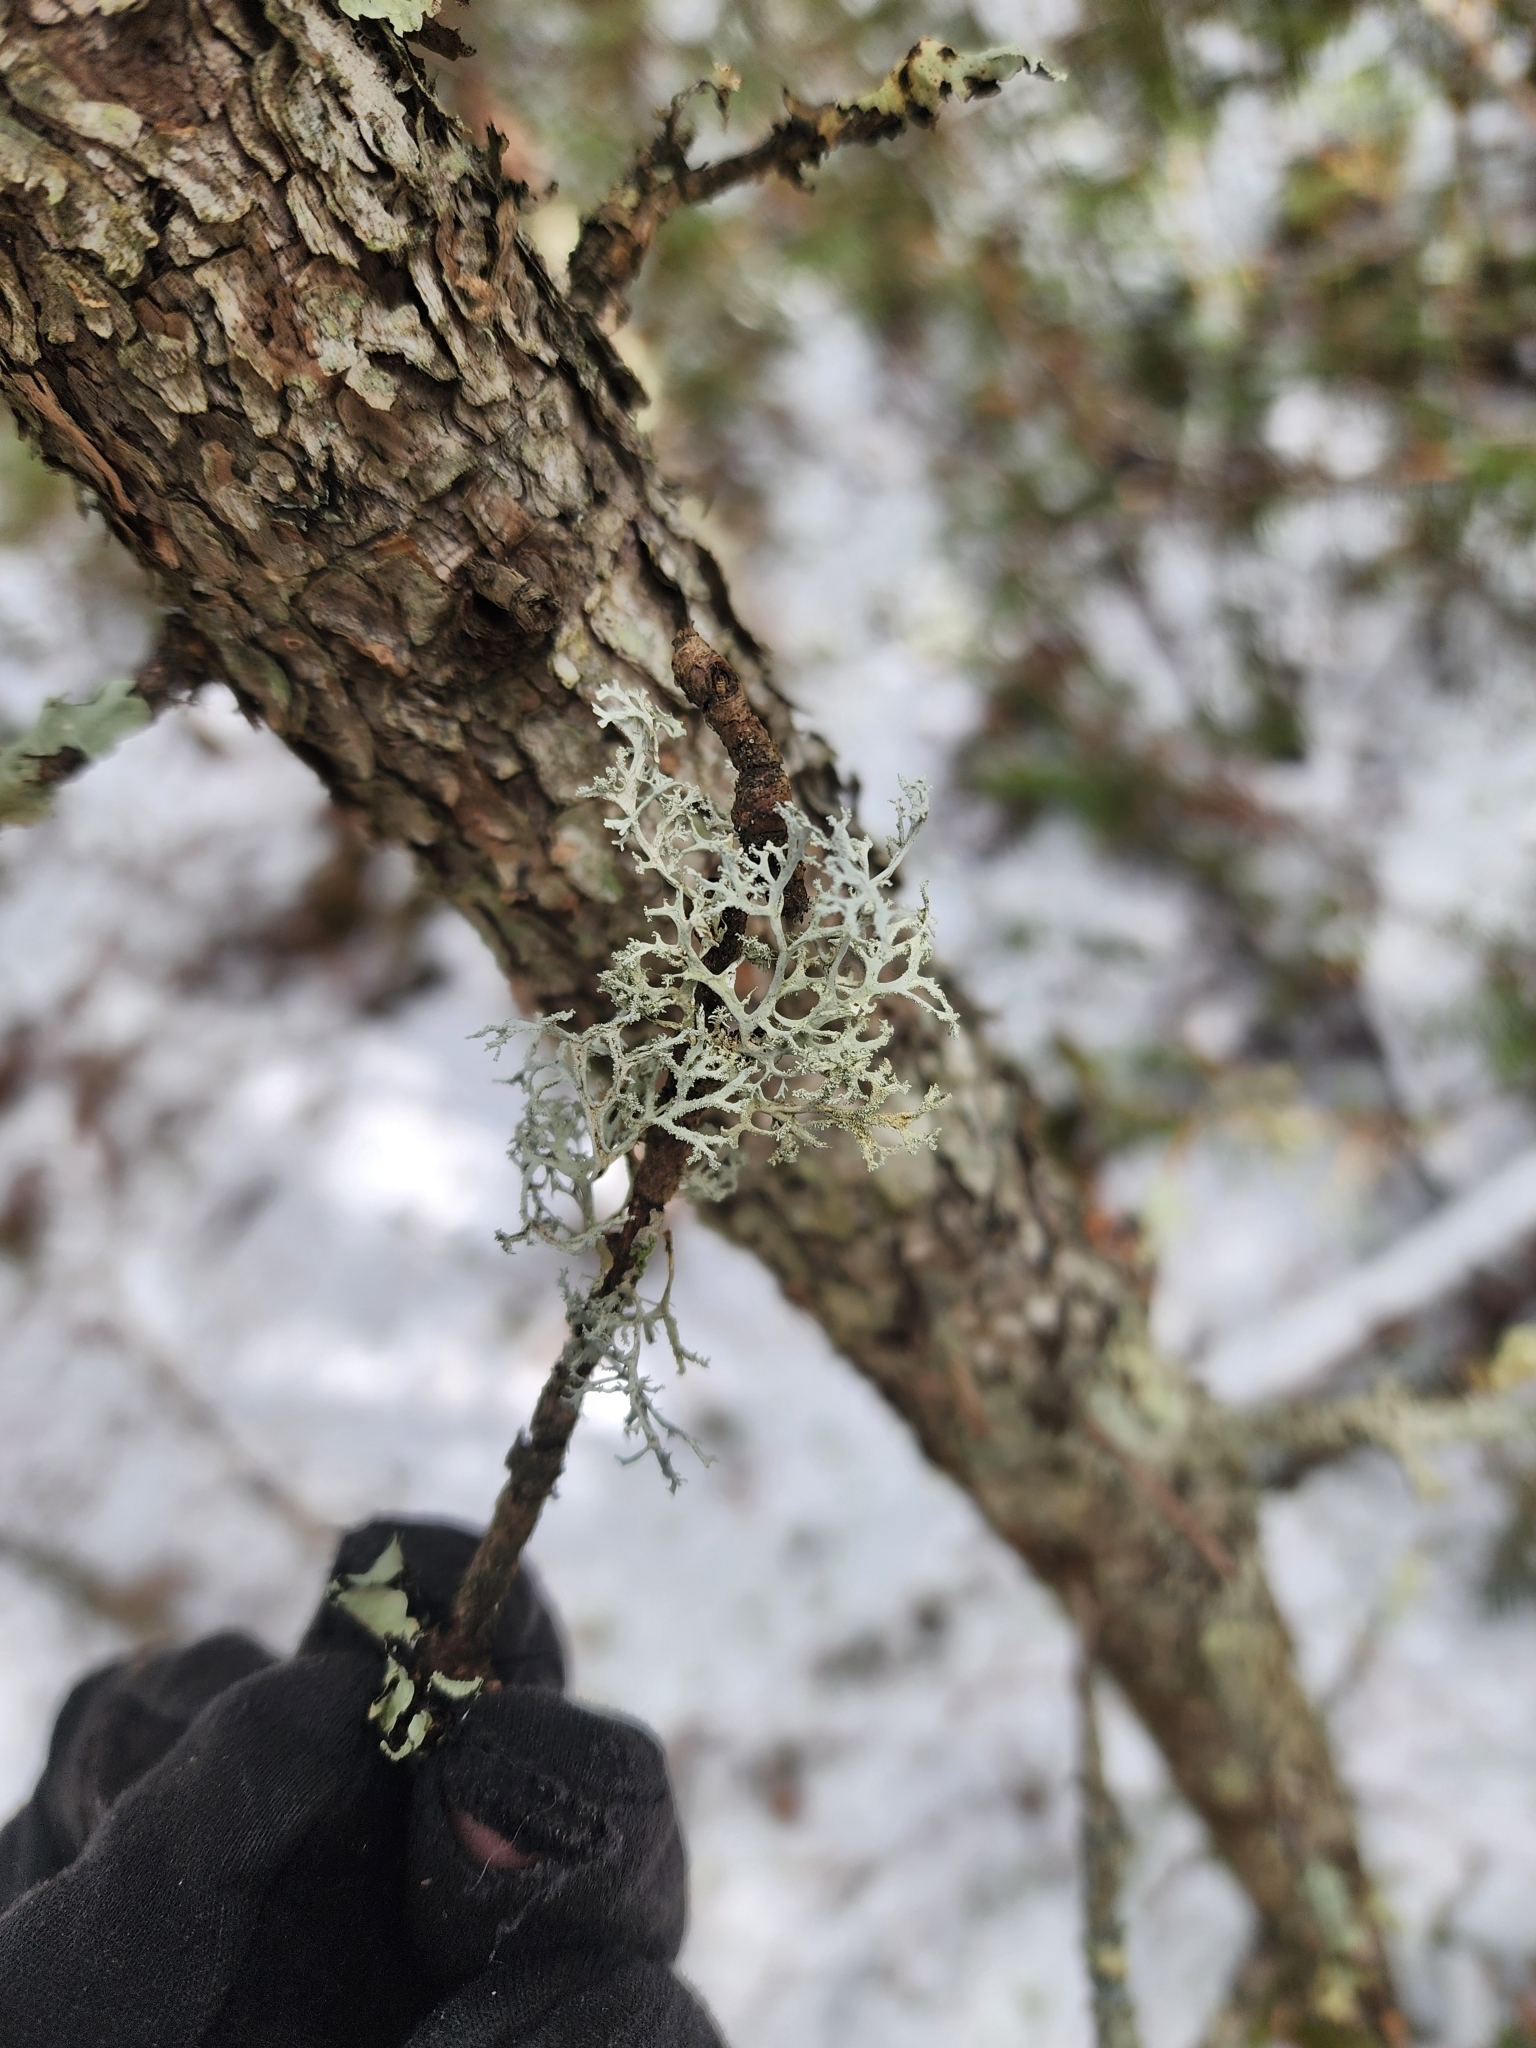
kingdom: Fungi
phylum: Ascomycota
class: Lecanoromycetes
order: Lecanorales
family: Parmeliaceae
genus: Pseudevernia
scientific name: Pseudevernia consocians
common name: Common antler lichen
